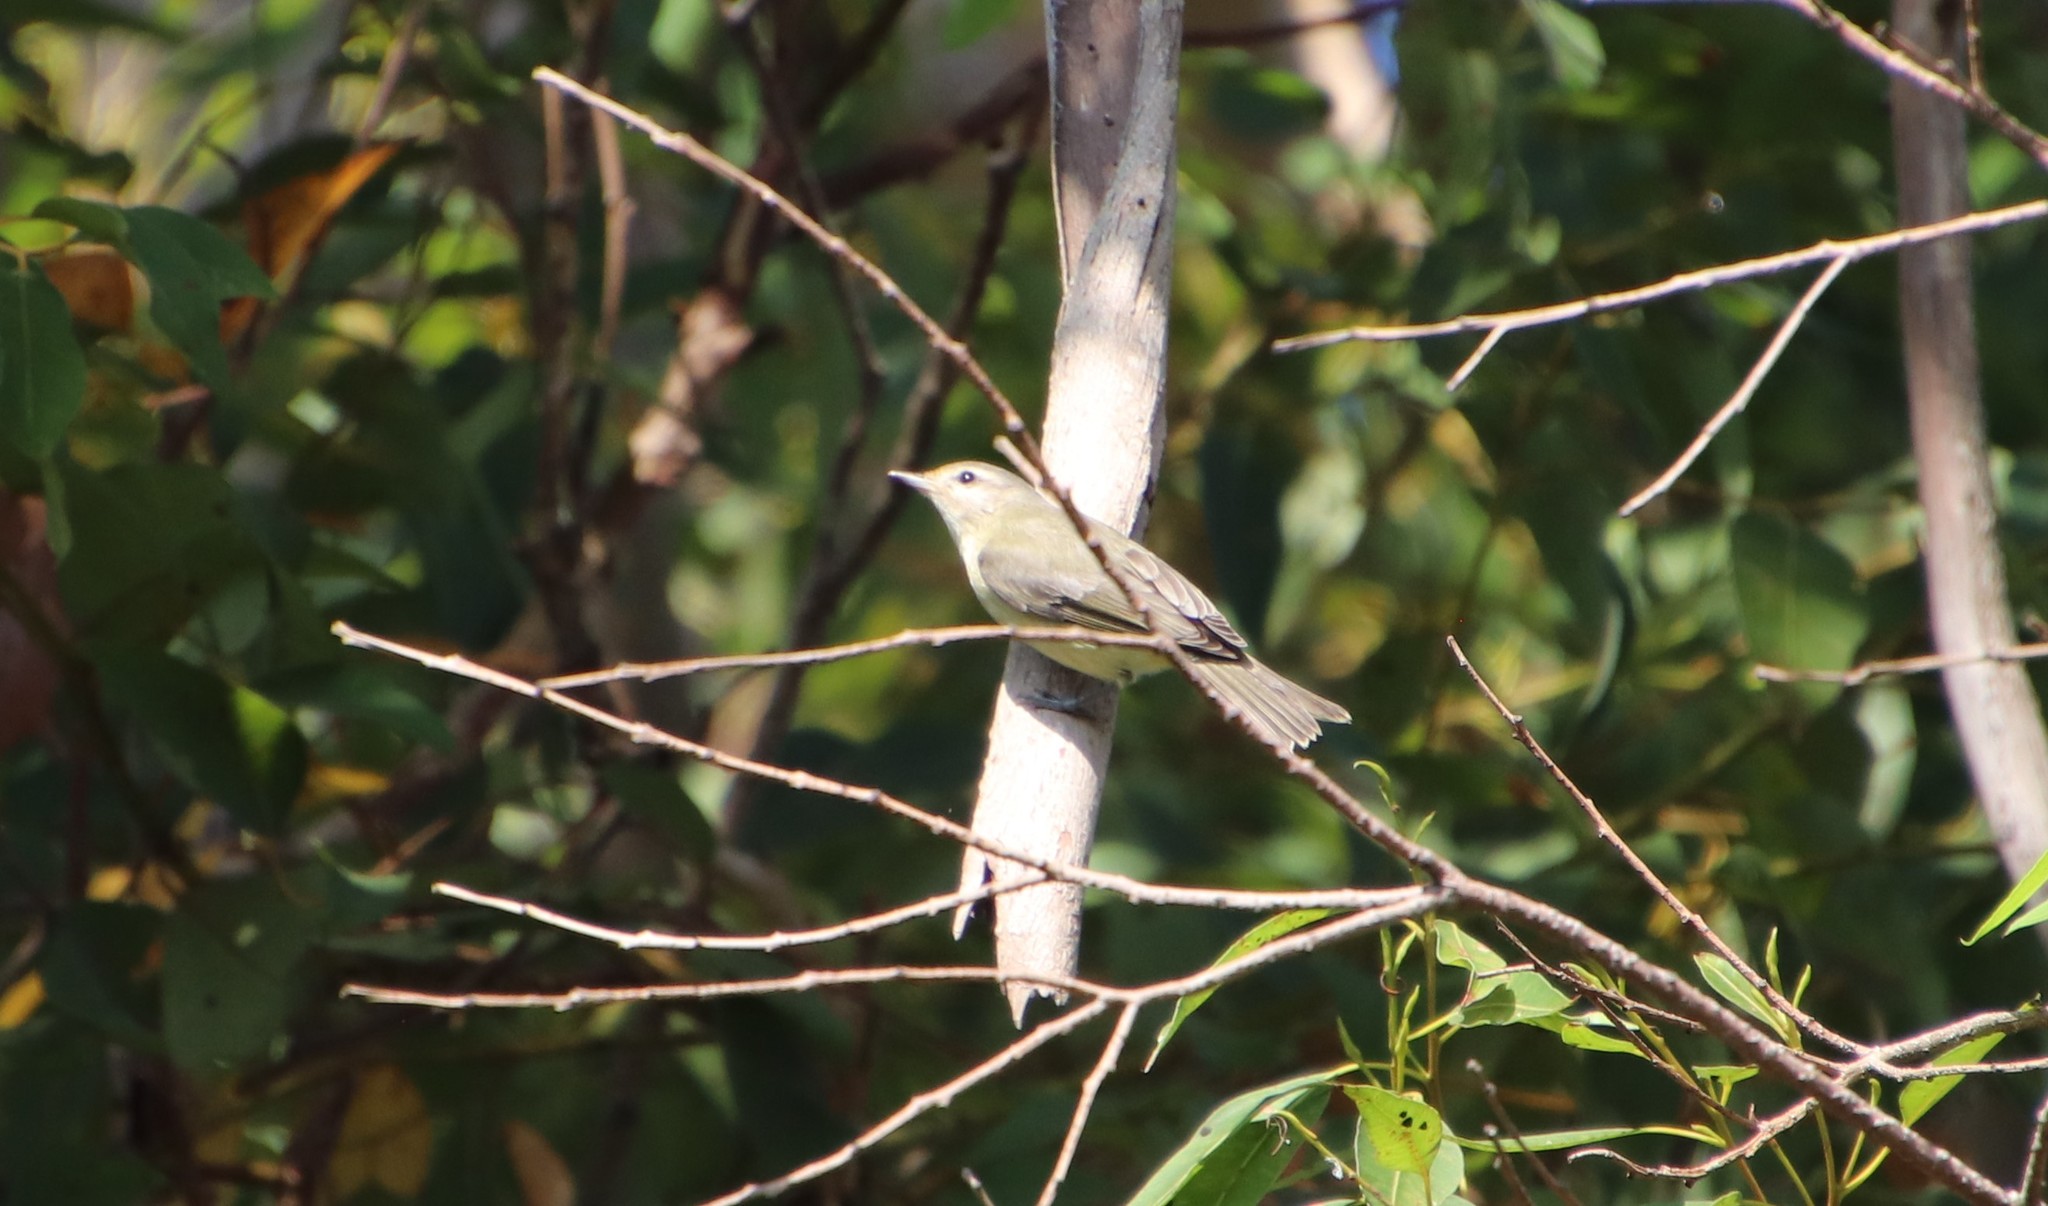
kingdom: Animalia
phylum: Chordata
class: Aves
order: Passeriformes
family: Vireonidae
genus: Vireo
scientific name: Vireo gilvus
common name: Warbling vireo
